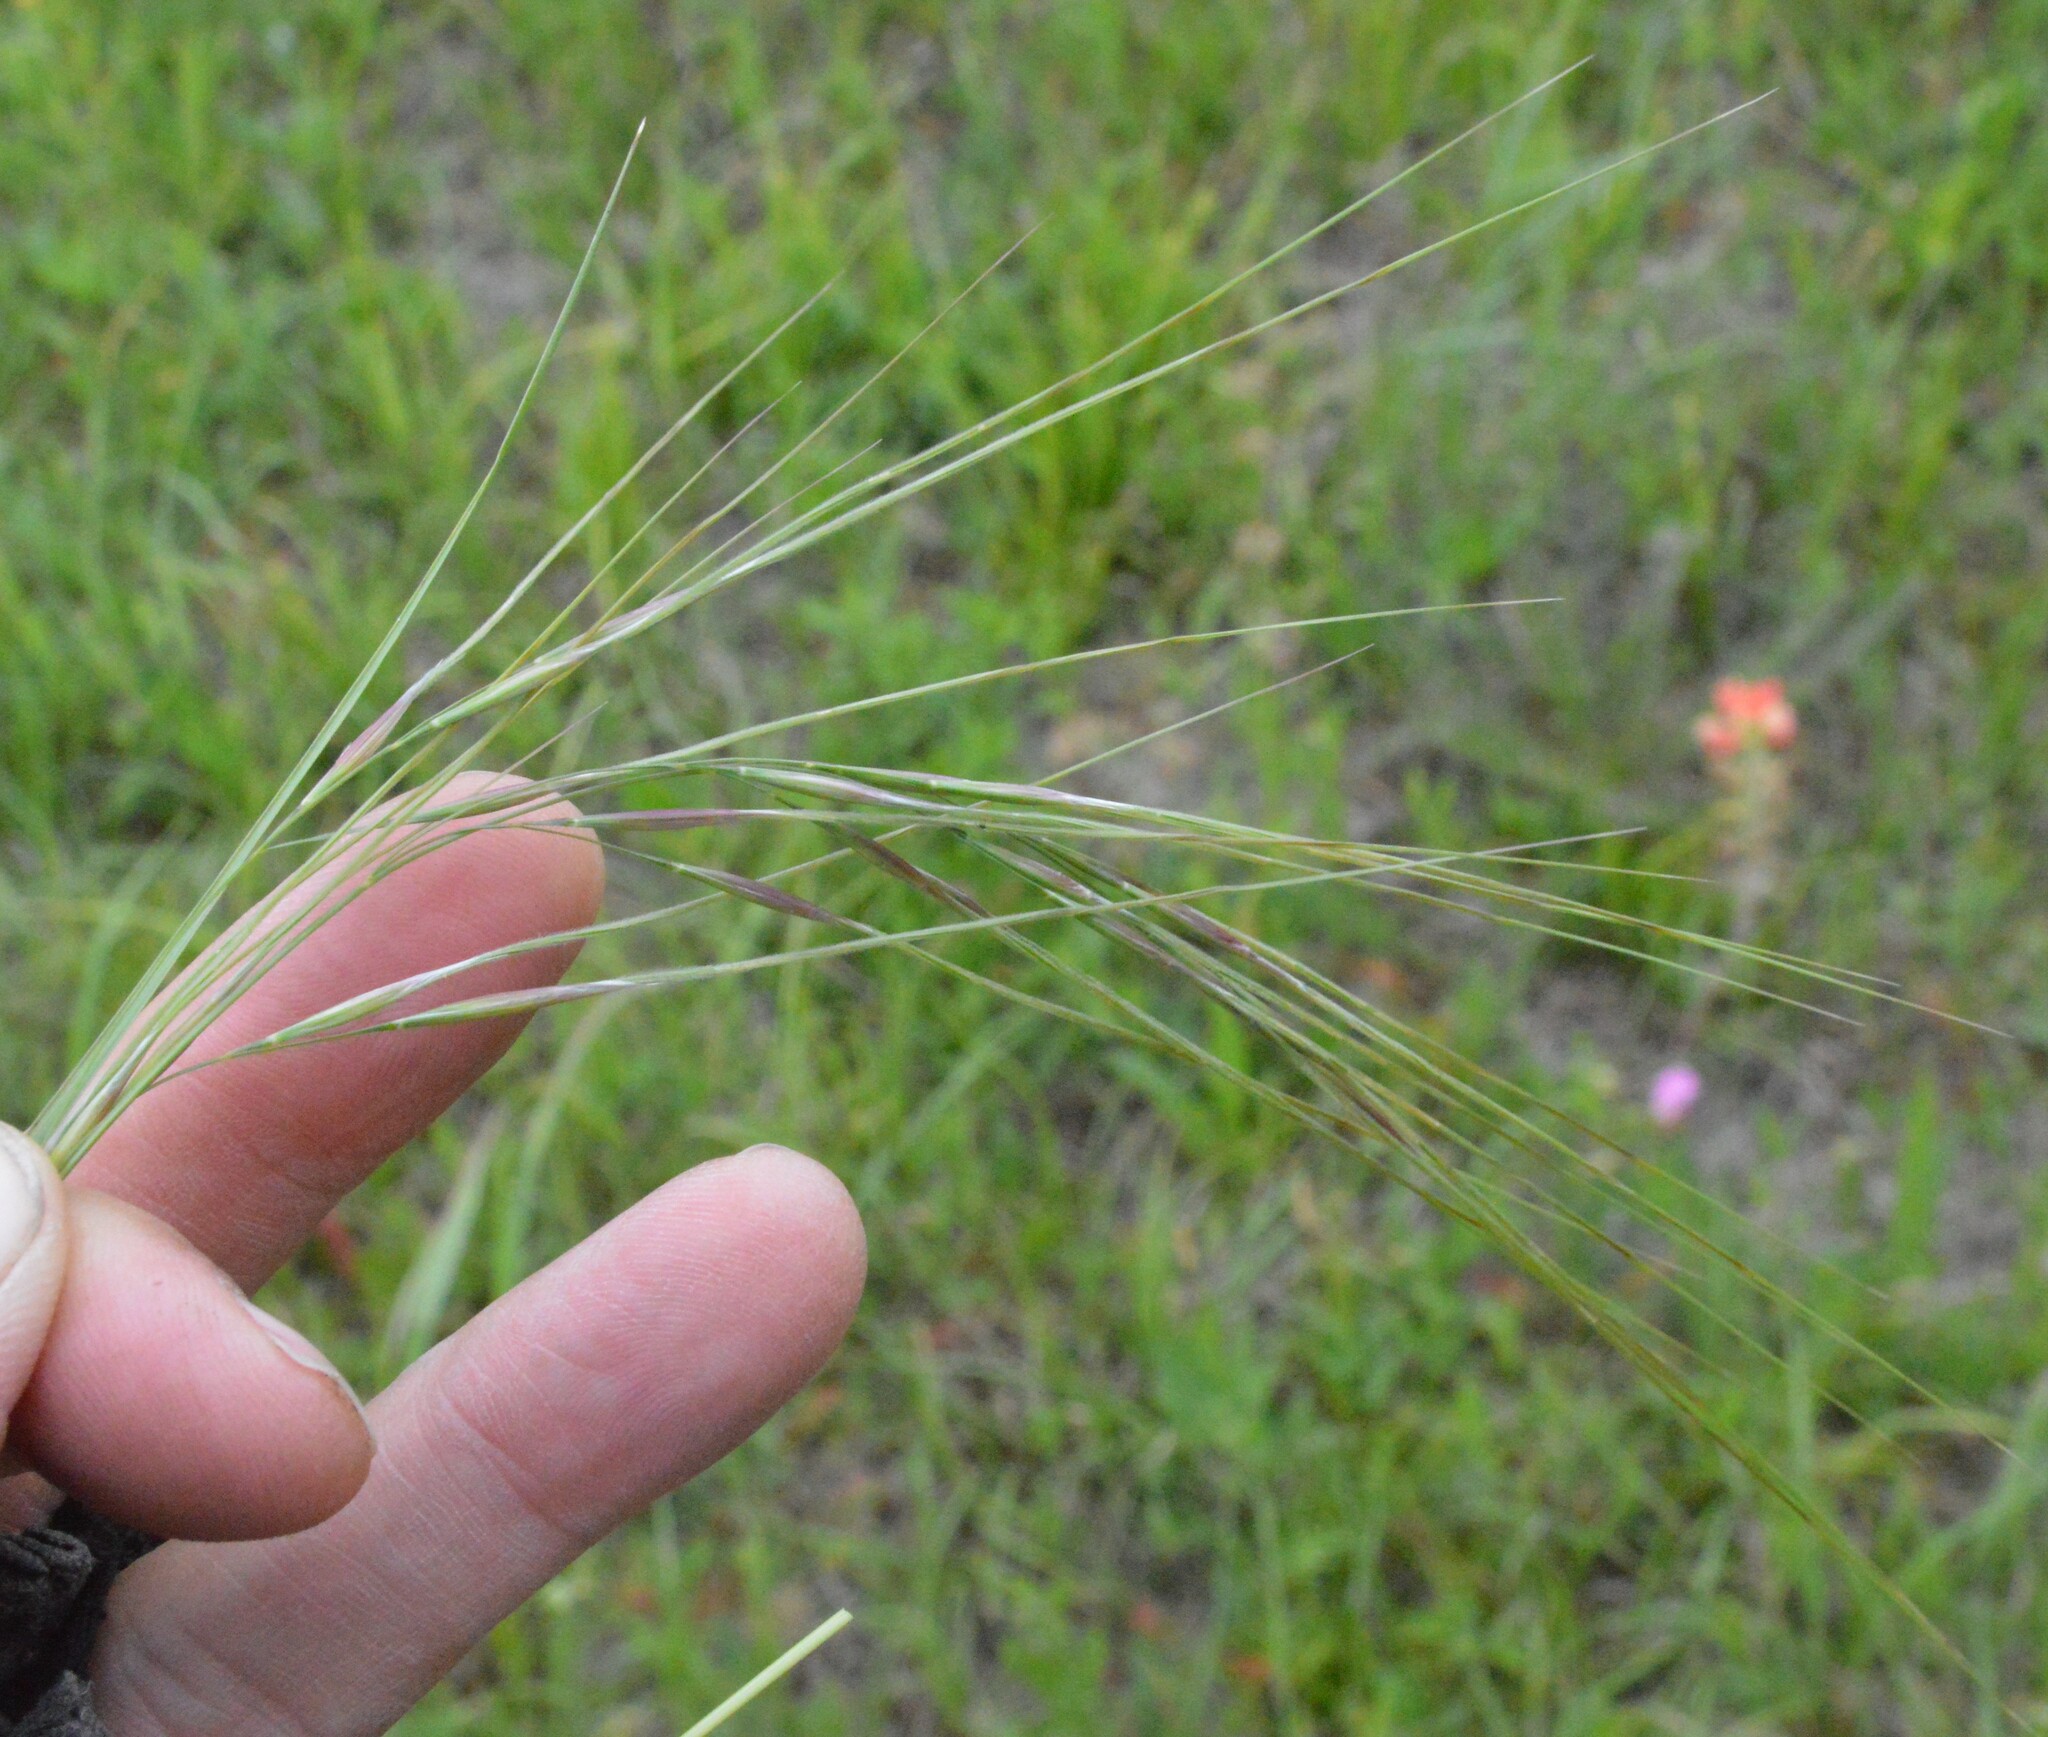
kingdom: Plantae
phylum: Tracheophyta
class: Liliopsida
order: Poales
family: Poaceae
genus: Nassella
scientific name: Nassella leucotricha
